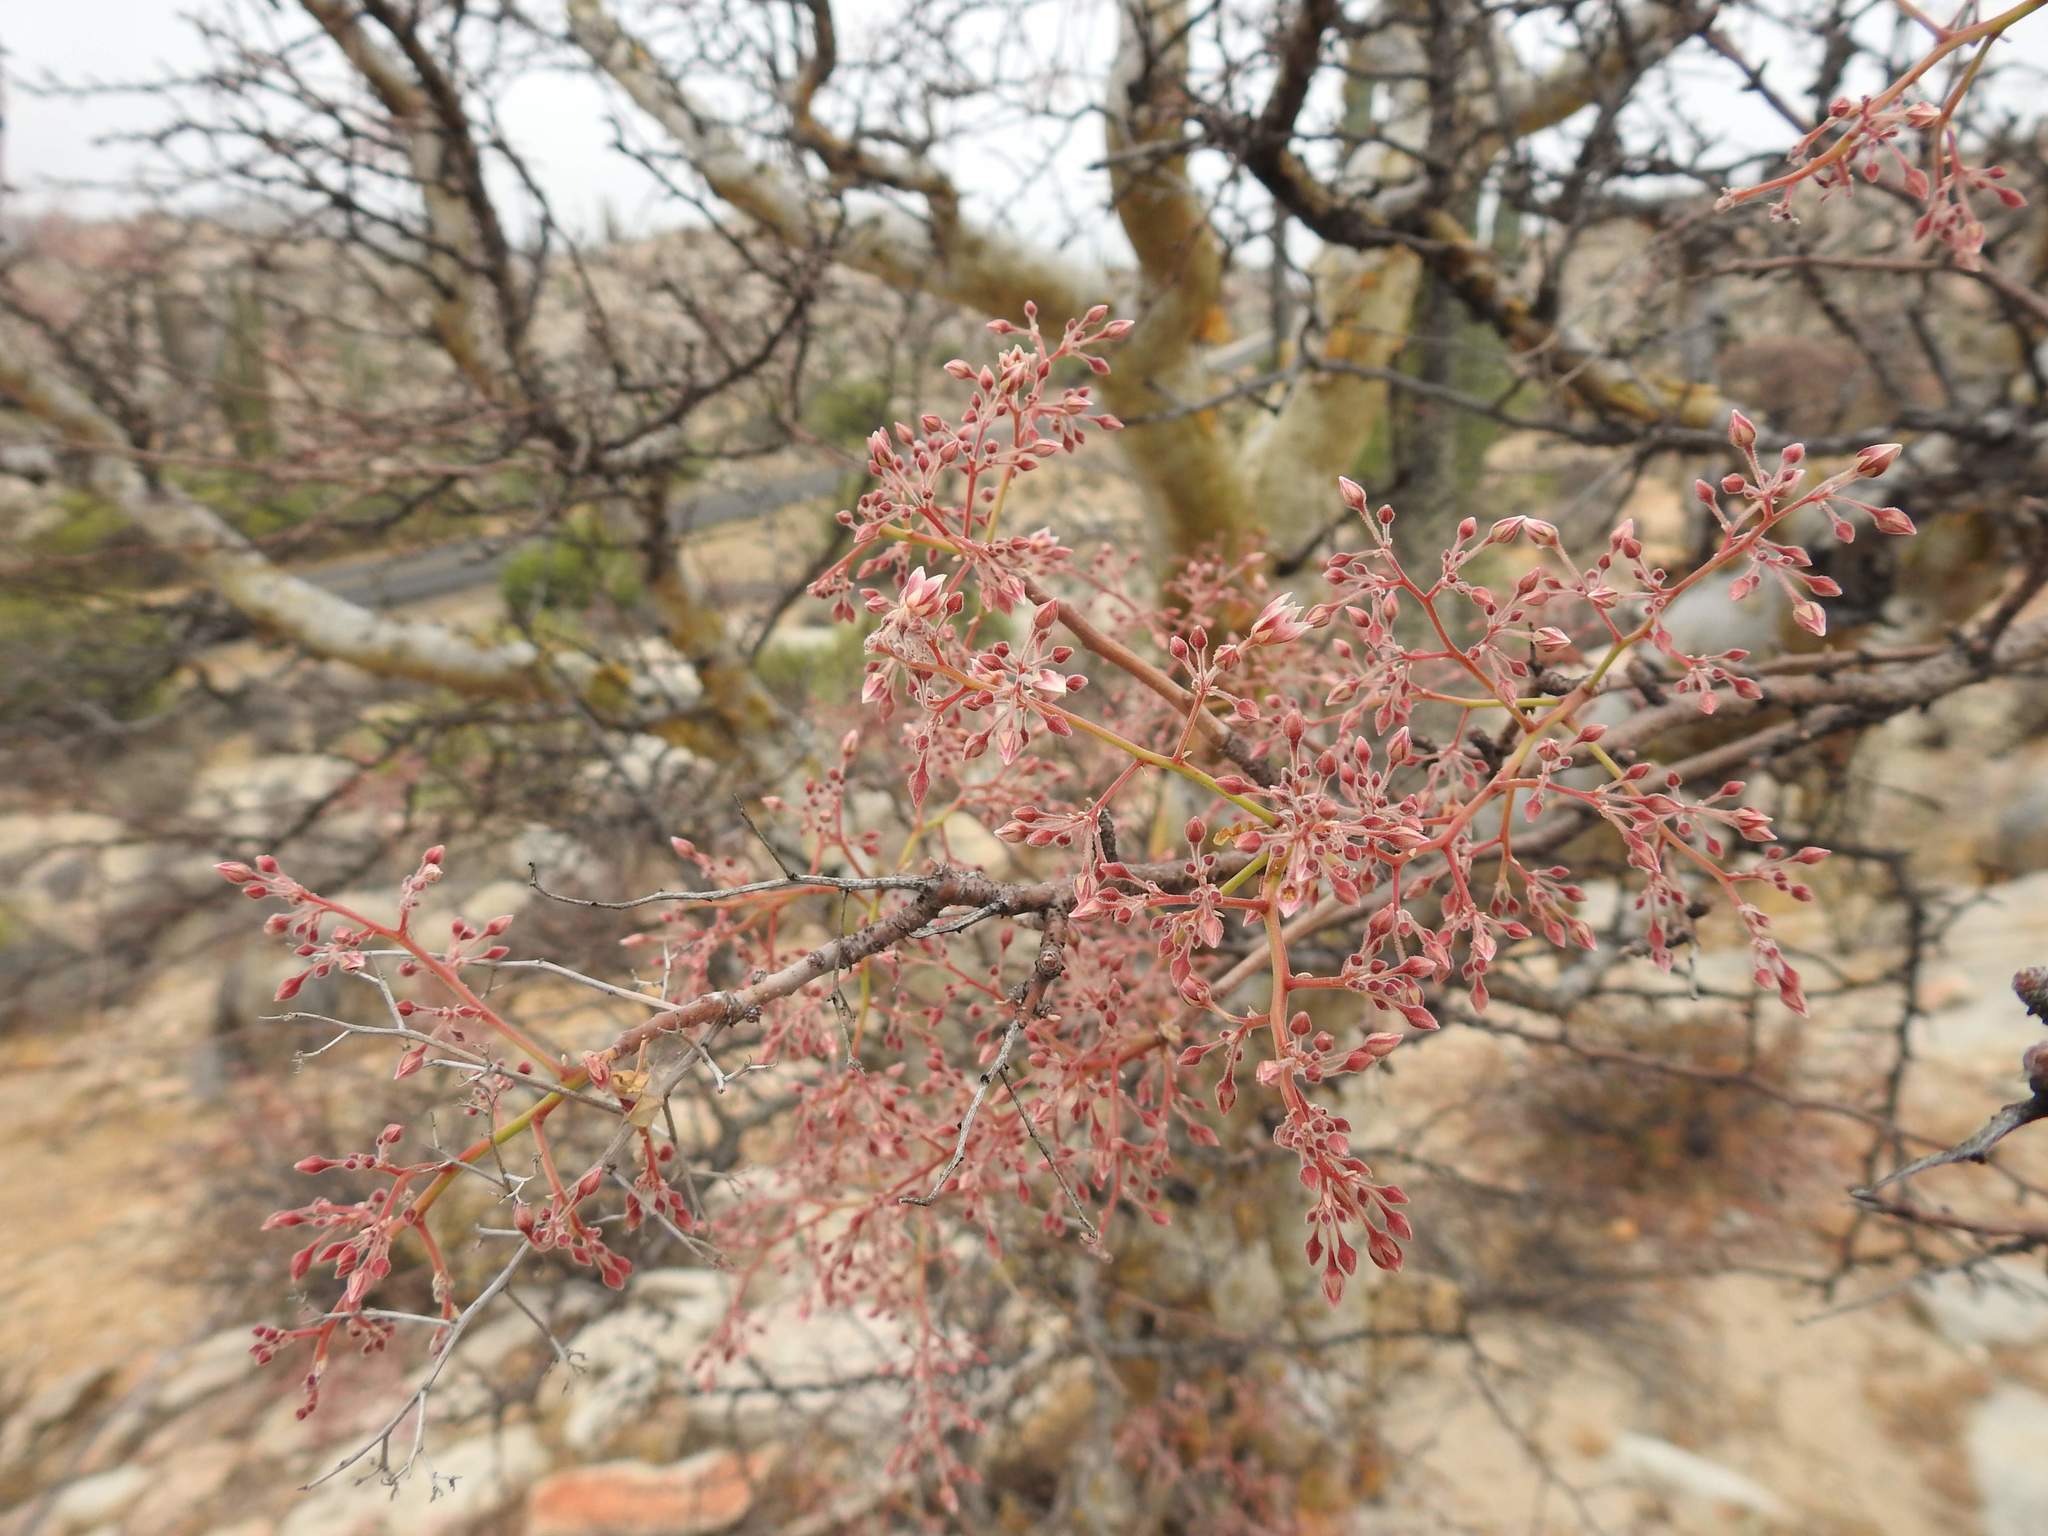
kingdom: Plantae
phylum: Tracheophyta
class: Magnoliopsida
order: Sapindales
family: Anacardiaceae
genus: Pachycormus
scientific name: Pachycormus discolor
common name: Succulent elephant trees
